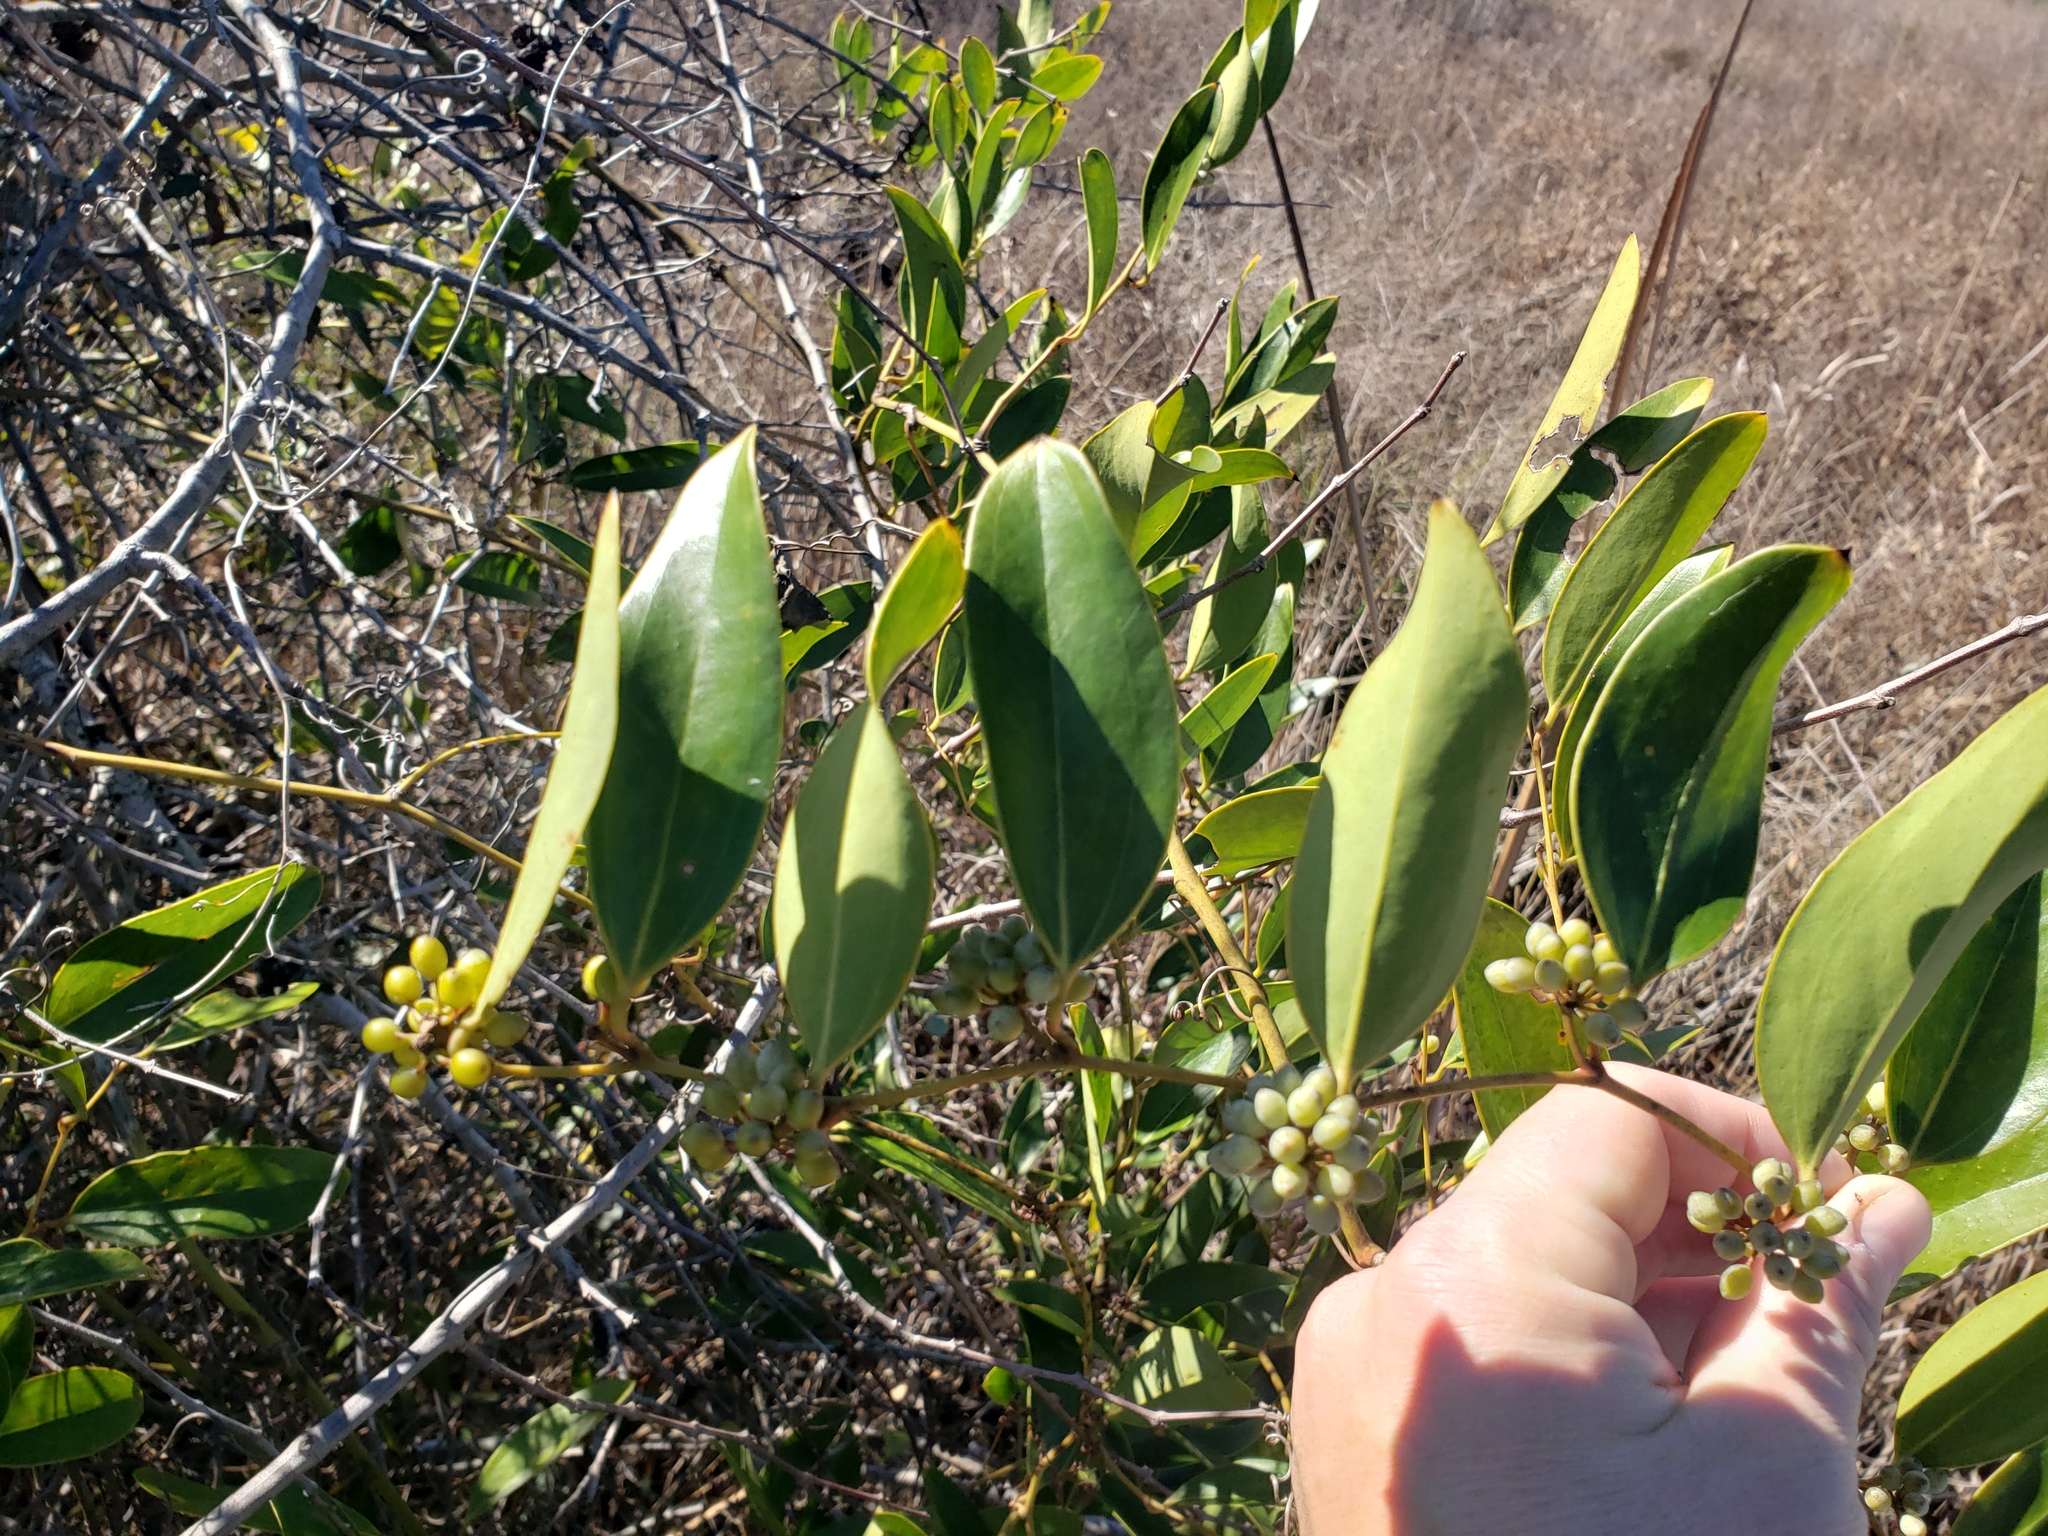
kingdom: Plantae
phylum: Tracheophyta
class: Liliopsida
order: Liliales
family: Smilacaceae
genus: Smilax
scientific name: Smilax laurifolia
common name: Bamboovine
